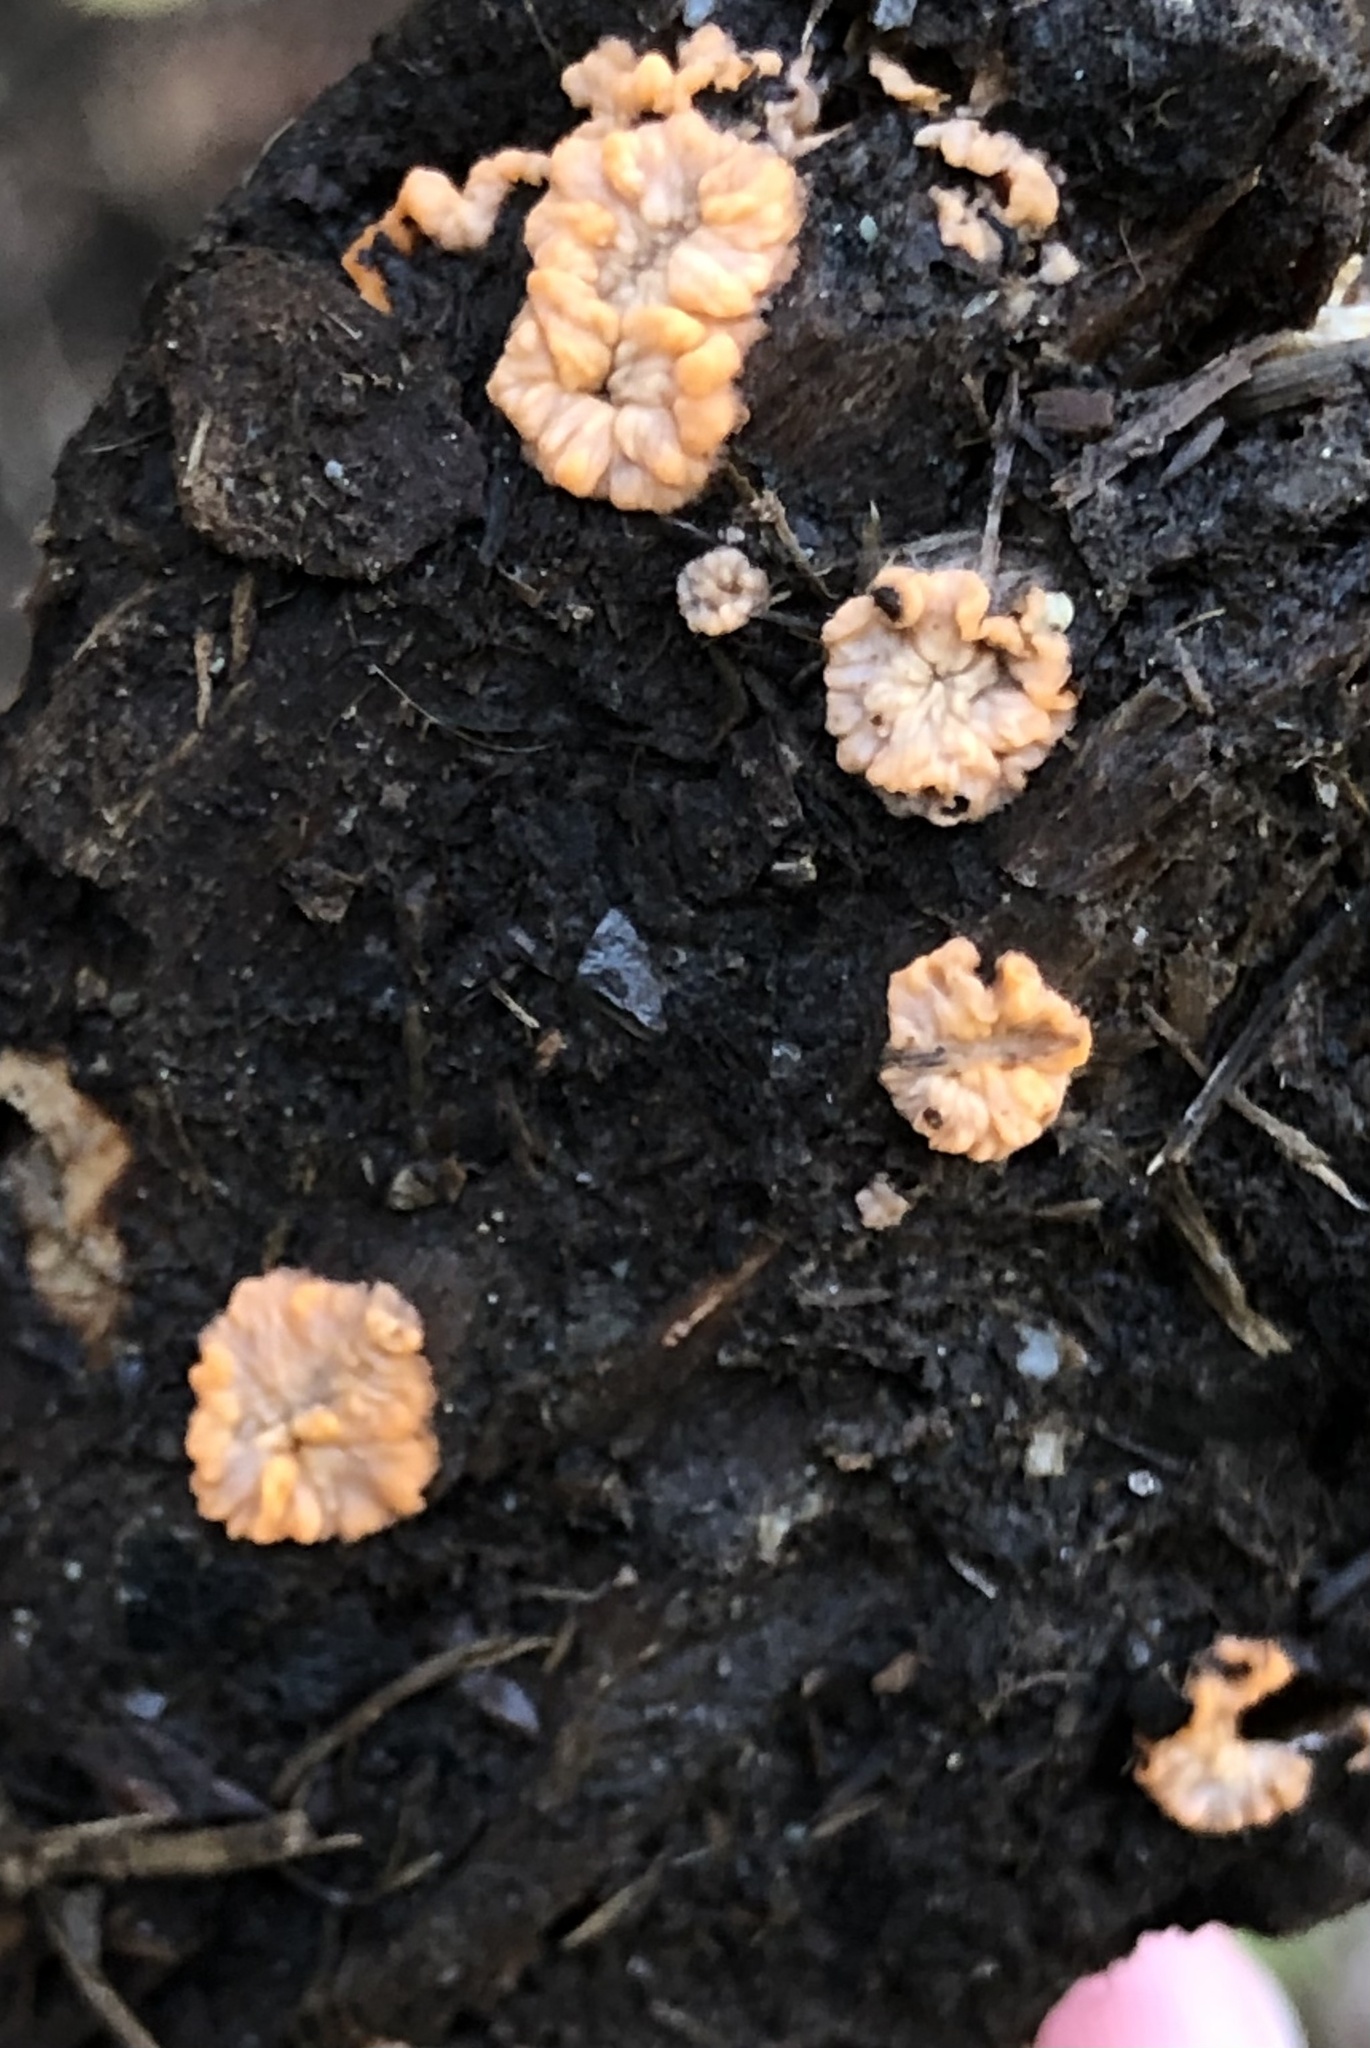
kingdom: Fungi
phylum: Basidiomycota
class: Agaricomycetes
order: Polyporales
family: Meruliaceae
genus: Phlebia
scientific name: Phlebia radiata
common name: Wrinkled crust
